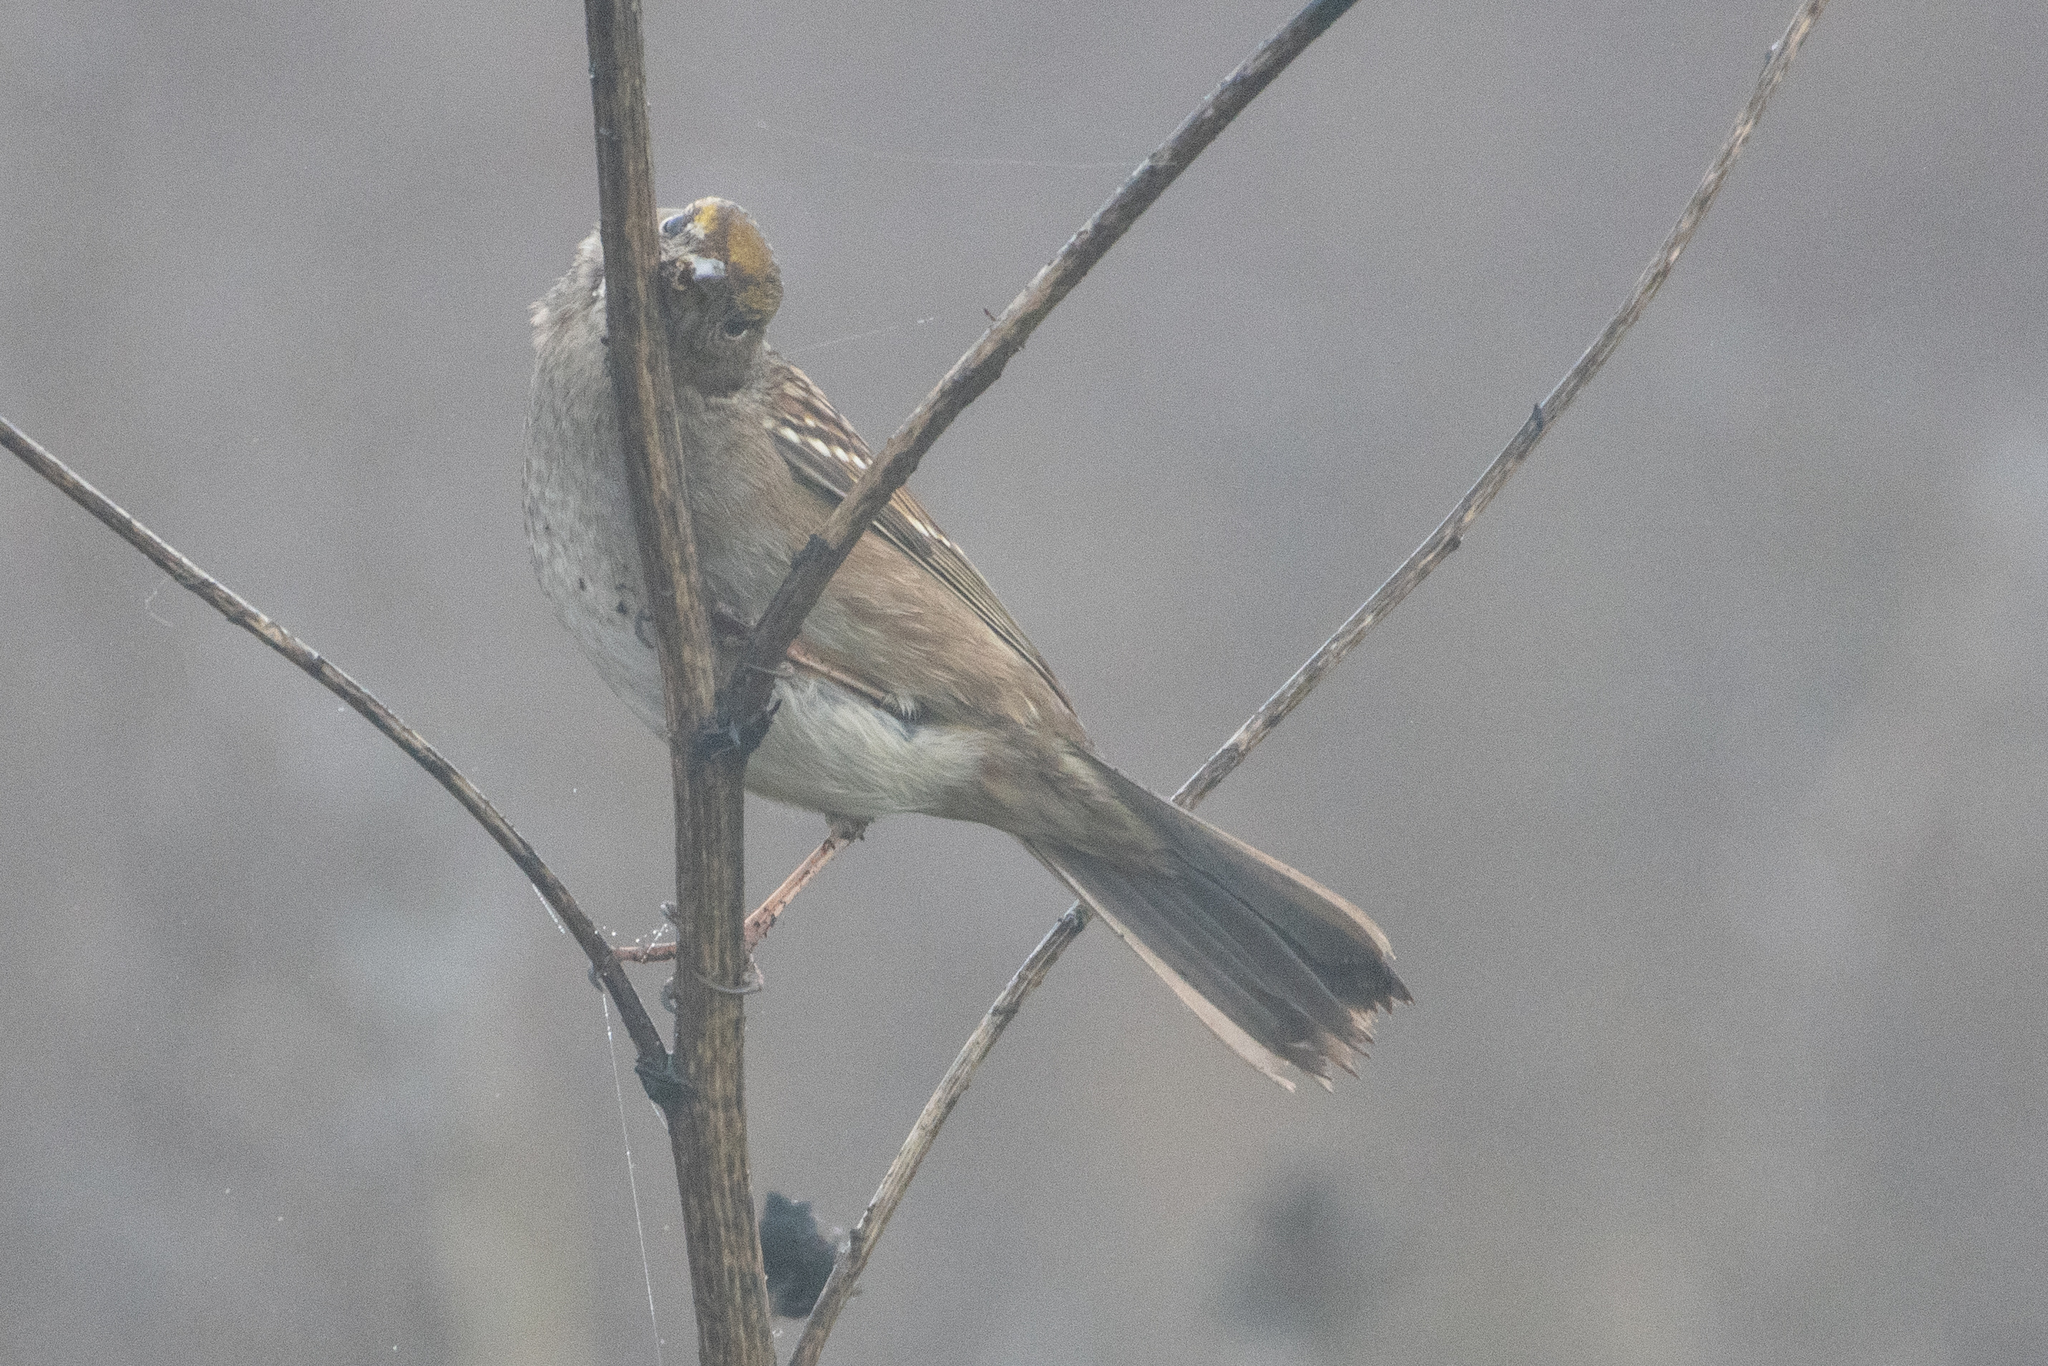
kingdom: Animalia
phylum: Chordata
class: Aves
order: Passeriformes
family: Passerellidae
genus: Zonotrichia
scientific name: Zonotrichia atricapilla
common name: Golden-crowned sparrow
